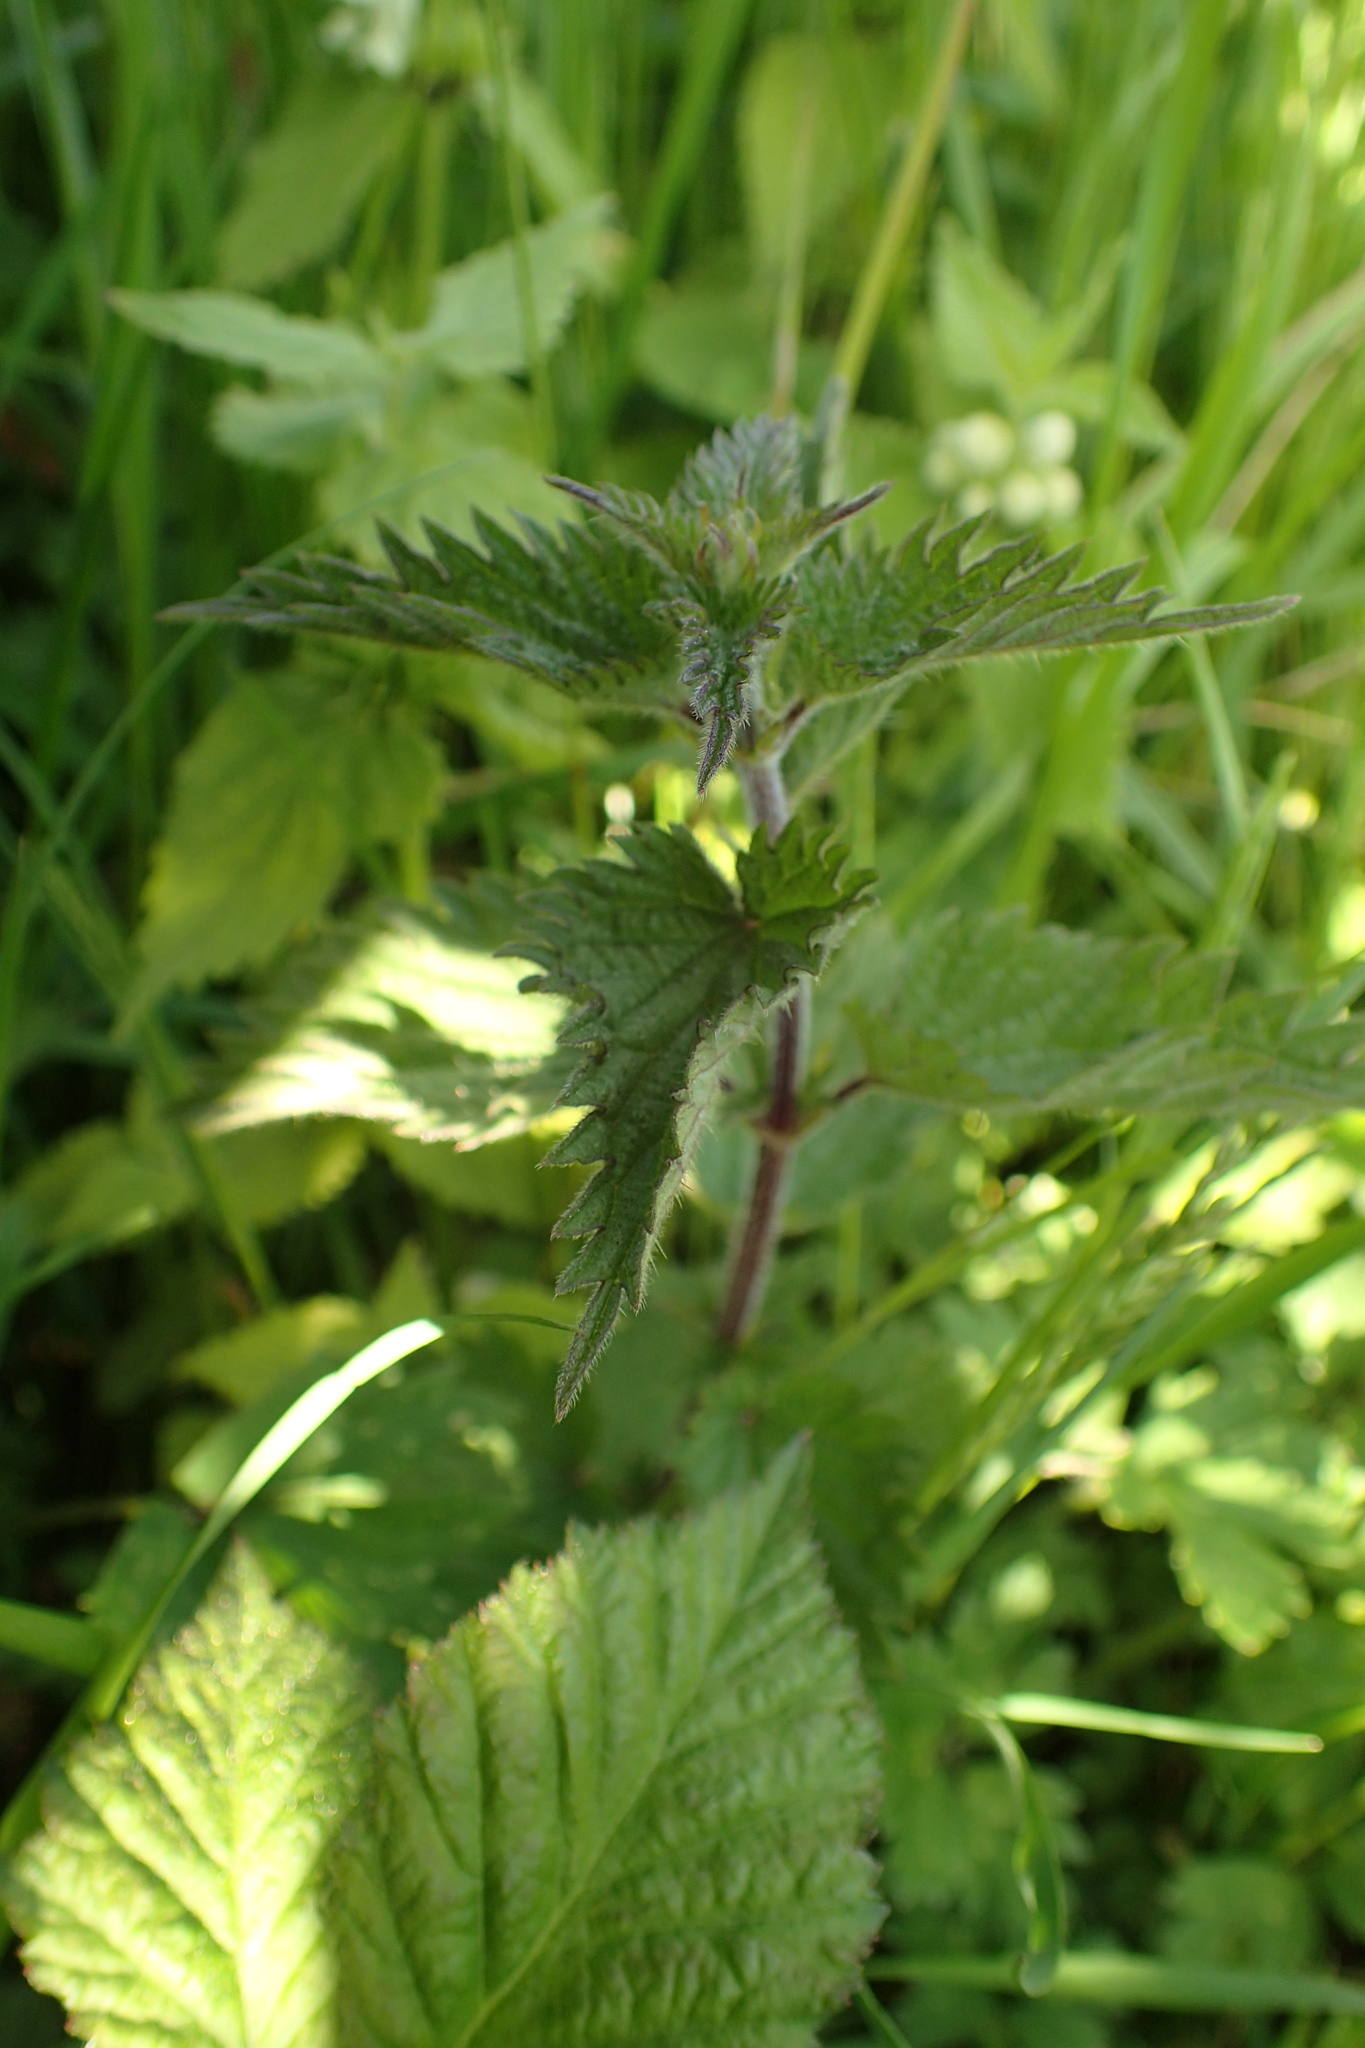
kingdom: Plantae
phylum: Tracheophyta
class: Magnoliopsida
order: Rosales
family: Urticaceae
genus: Urtica
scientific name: Urtica dioica
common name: Common nettle
